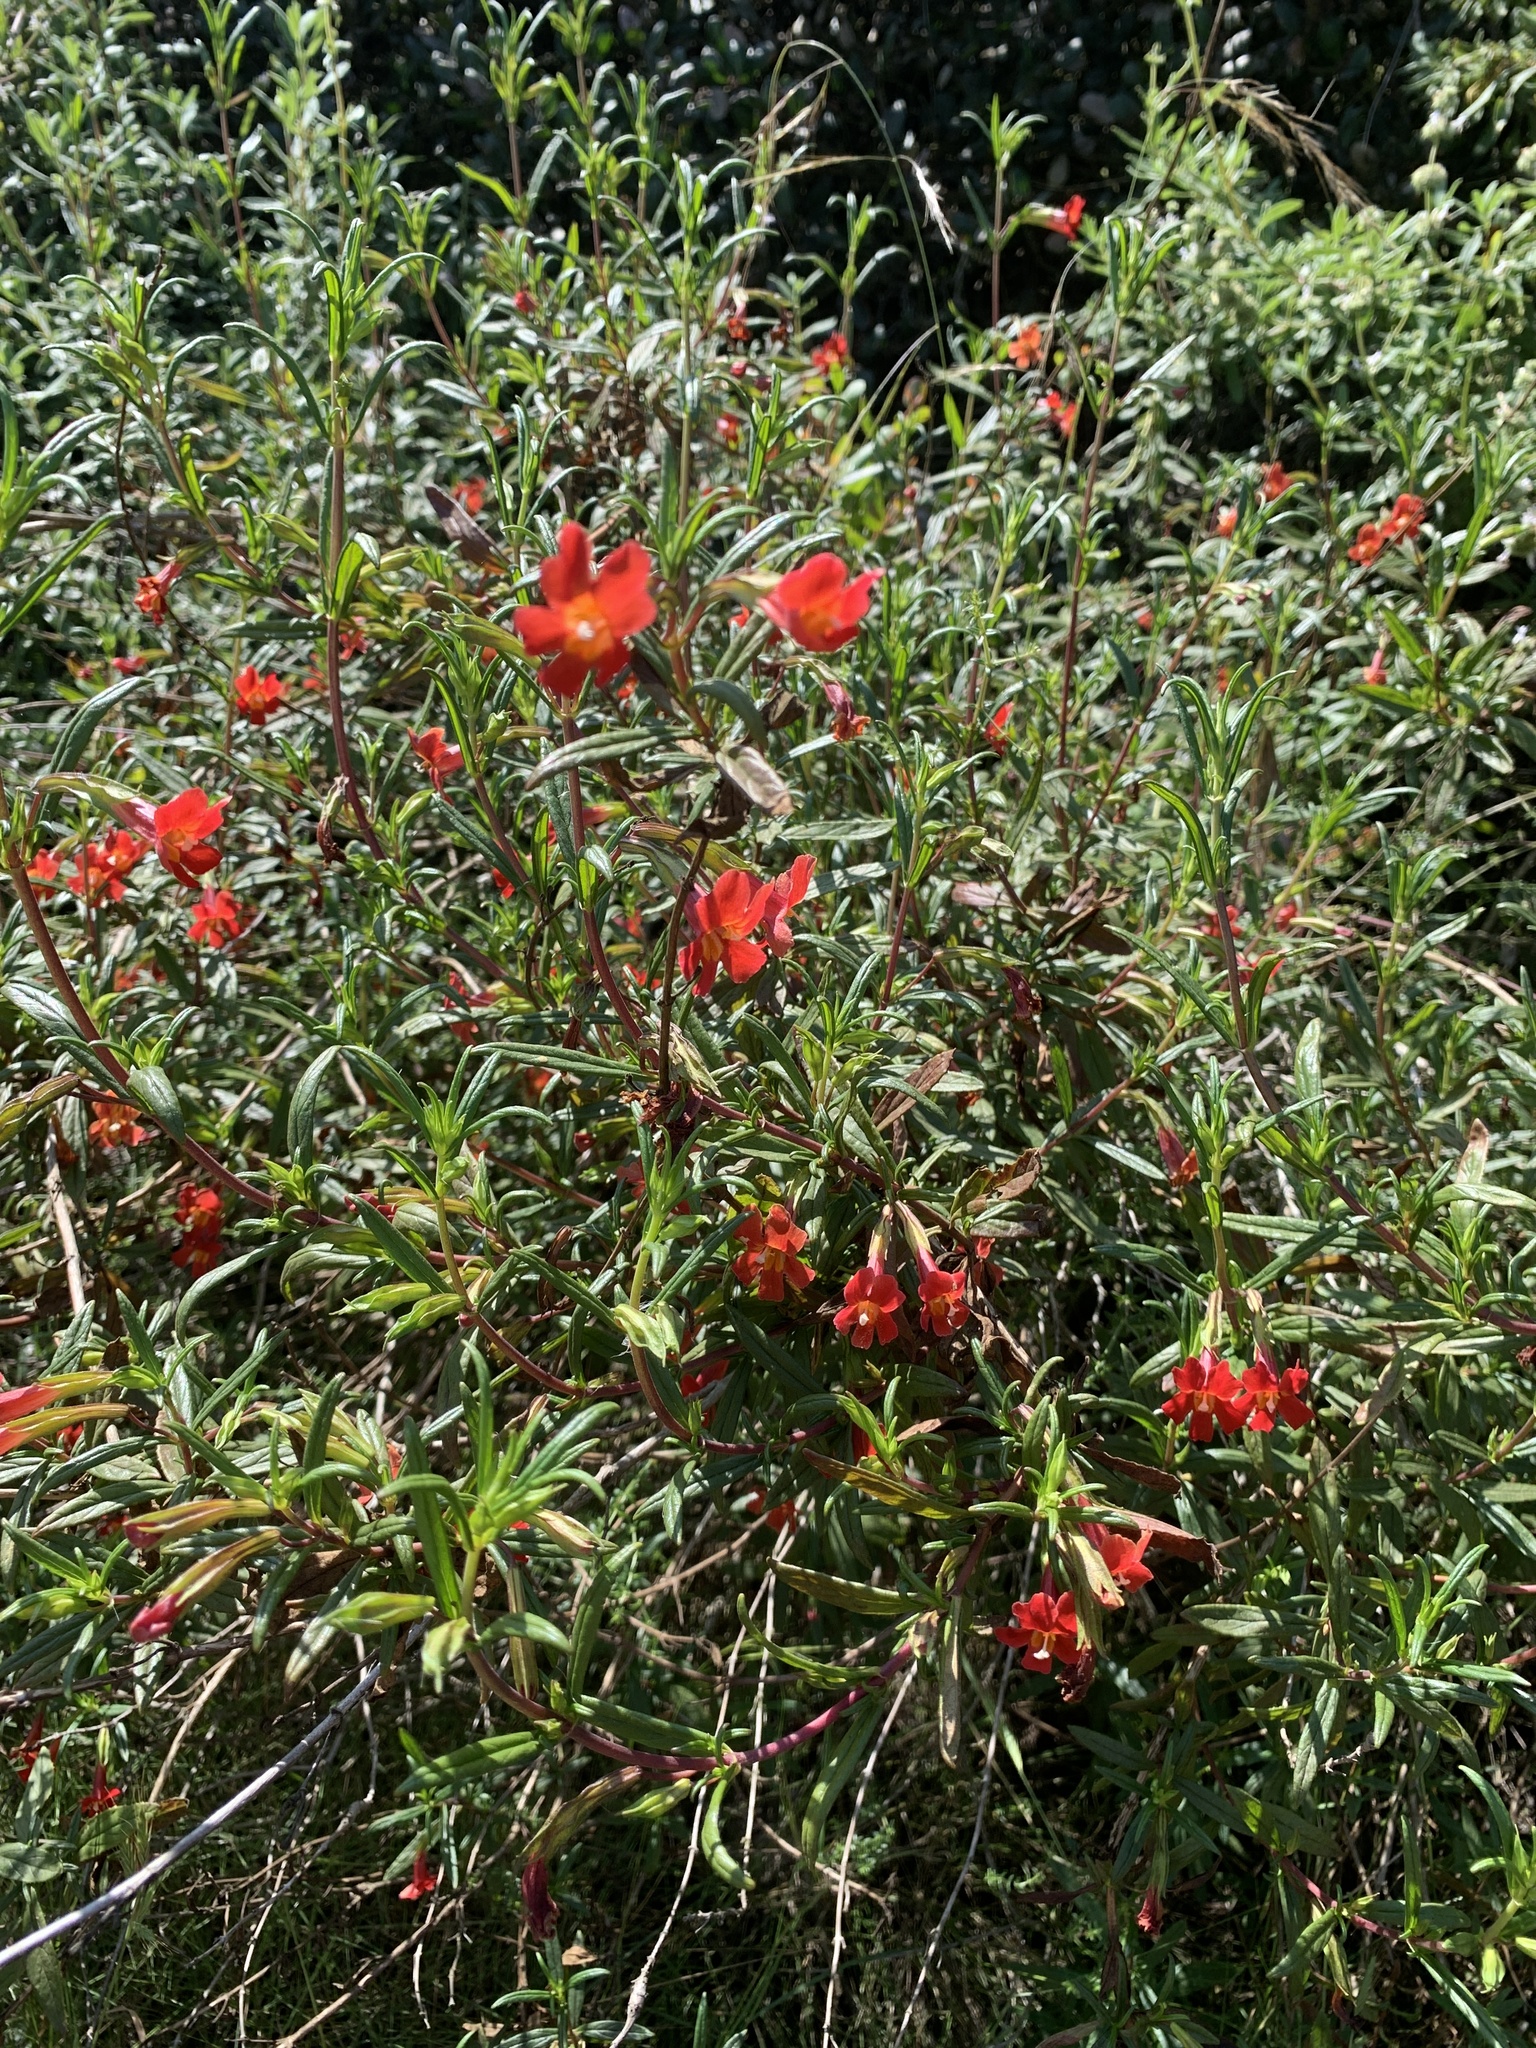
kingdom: Plantae
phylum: Tracheophyta
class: Magnoliopsida
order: Lamiales
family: Phrymaceae
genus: Diplacus
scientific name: Diplacus puniceus
